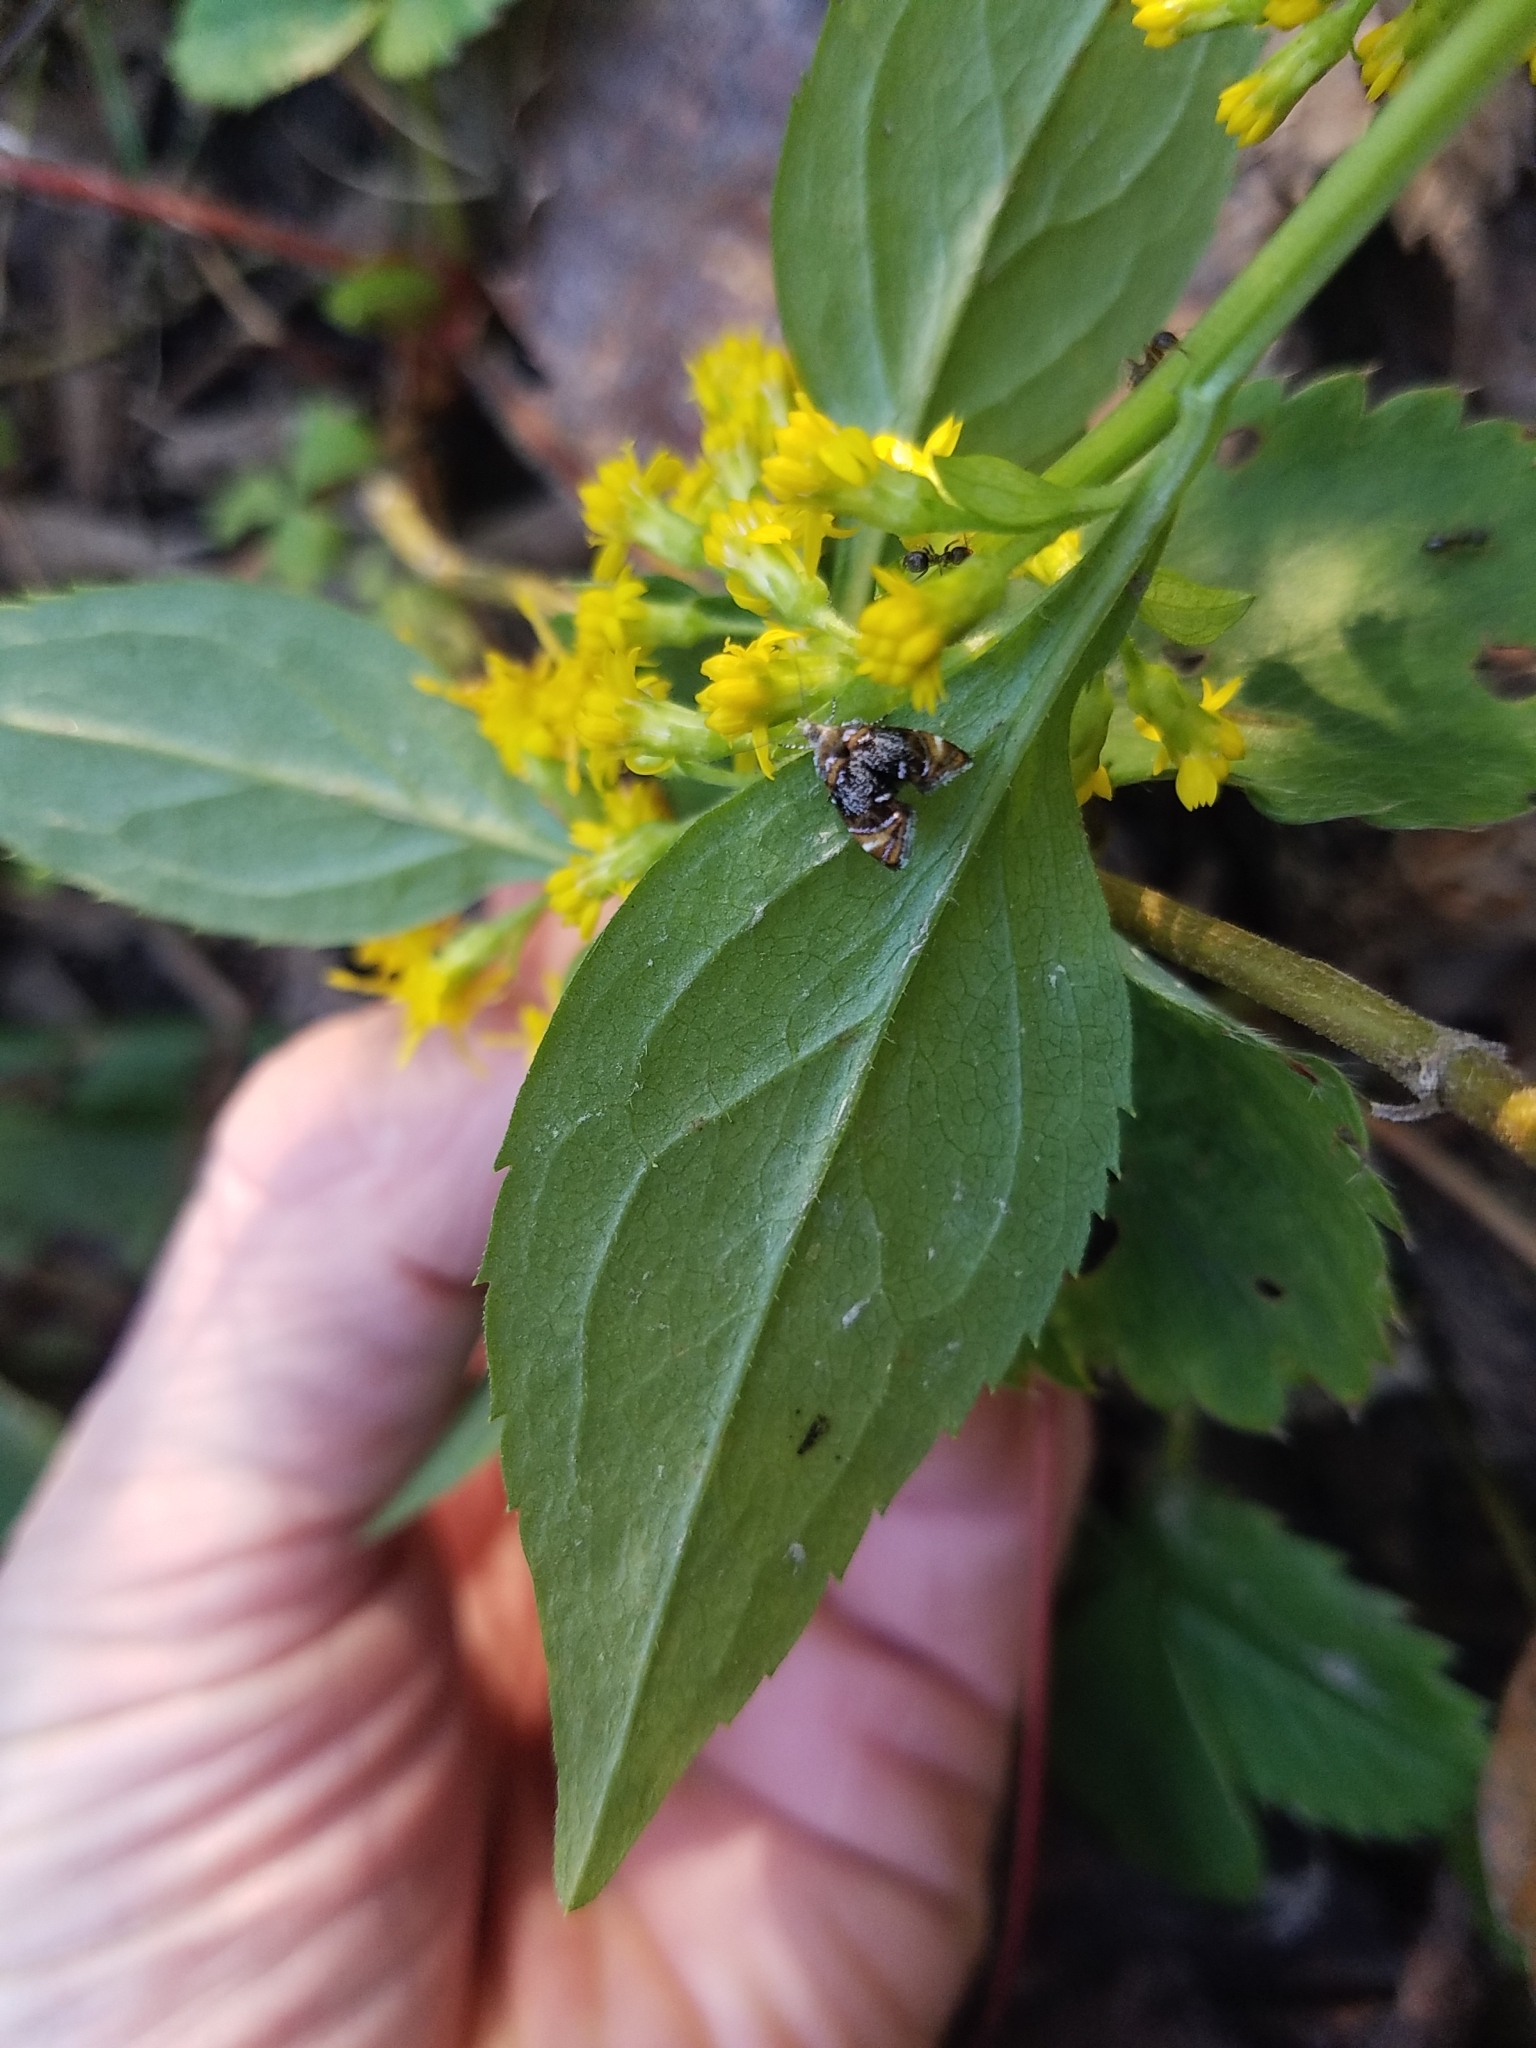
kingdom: Animalia
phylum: Arthropoda
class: Insecta
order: Lepidoptera
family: Choreutidae
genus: Prochoreutis
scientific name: Prochoreutis inflatella
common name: Skullcap skeletonizer moth
